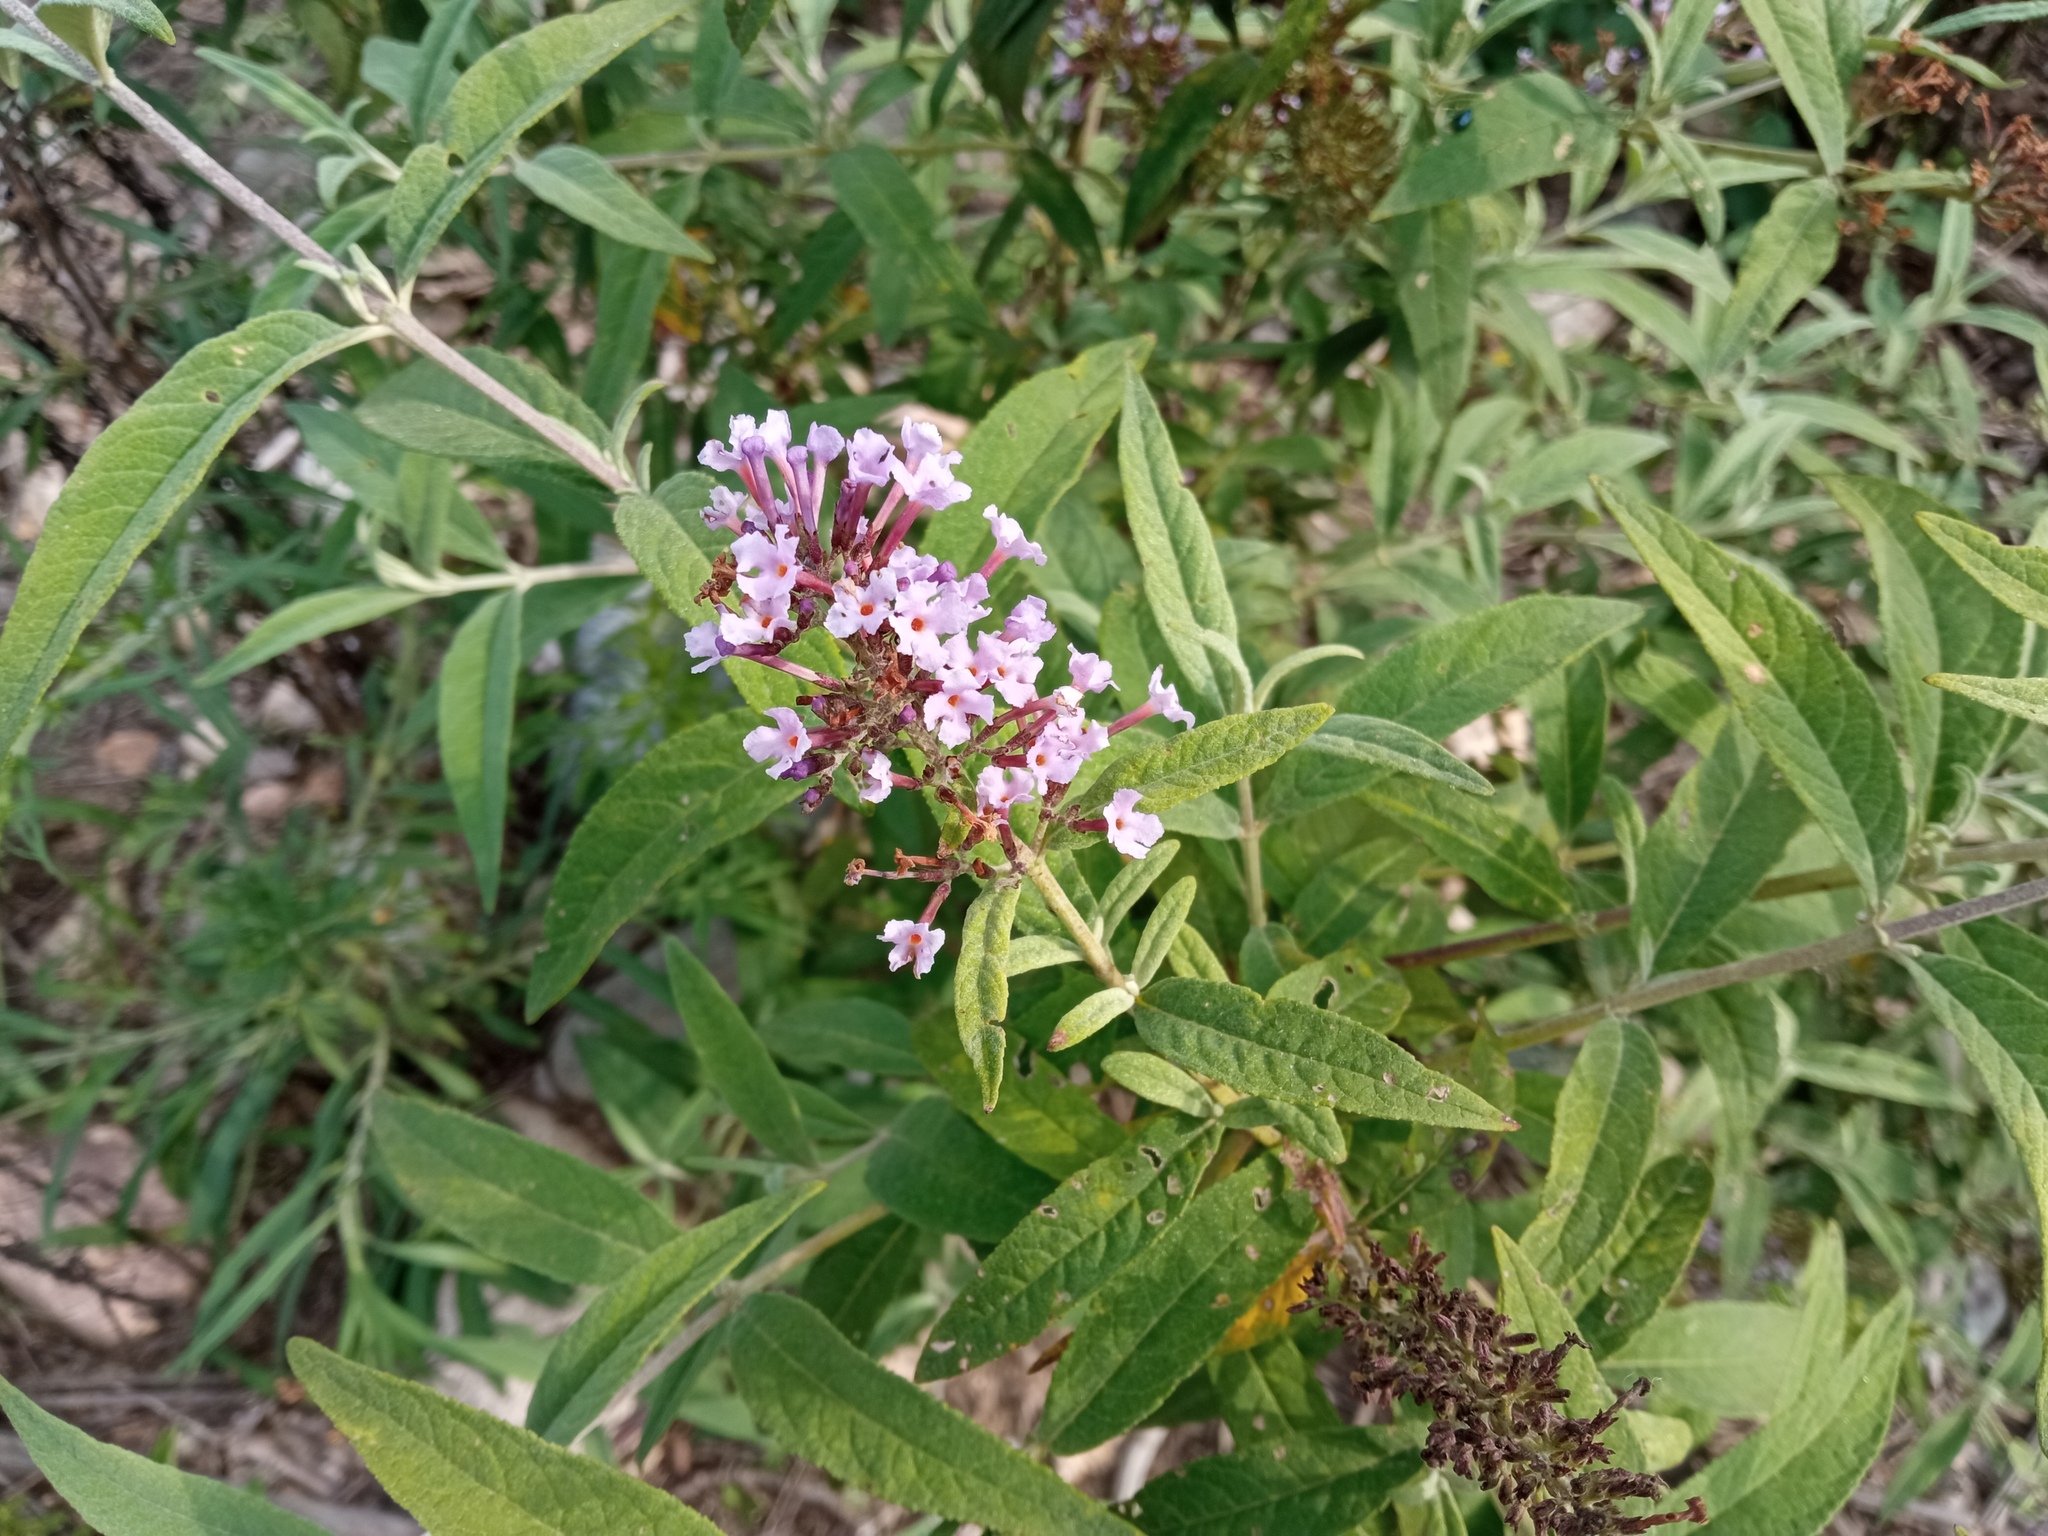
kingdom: Plantae
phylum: Tracheophyta
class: Magnoliopsida
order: Lamiales
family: Scrophulariaceae
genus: Buddleja
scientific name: Buddleja davidii
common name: Butterfly-bush
